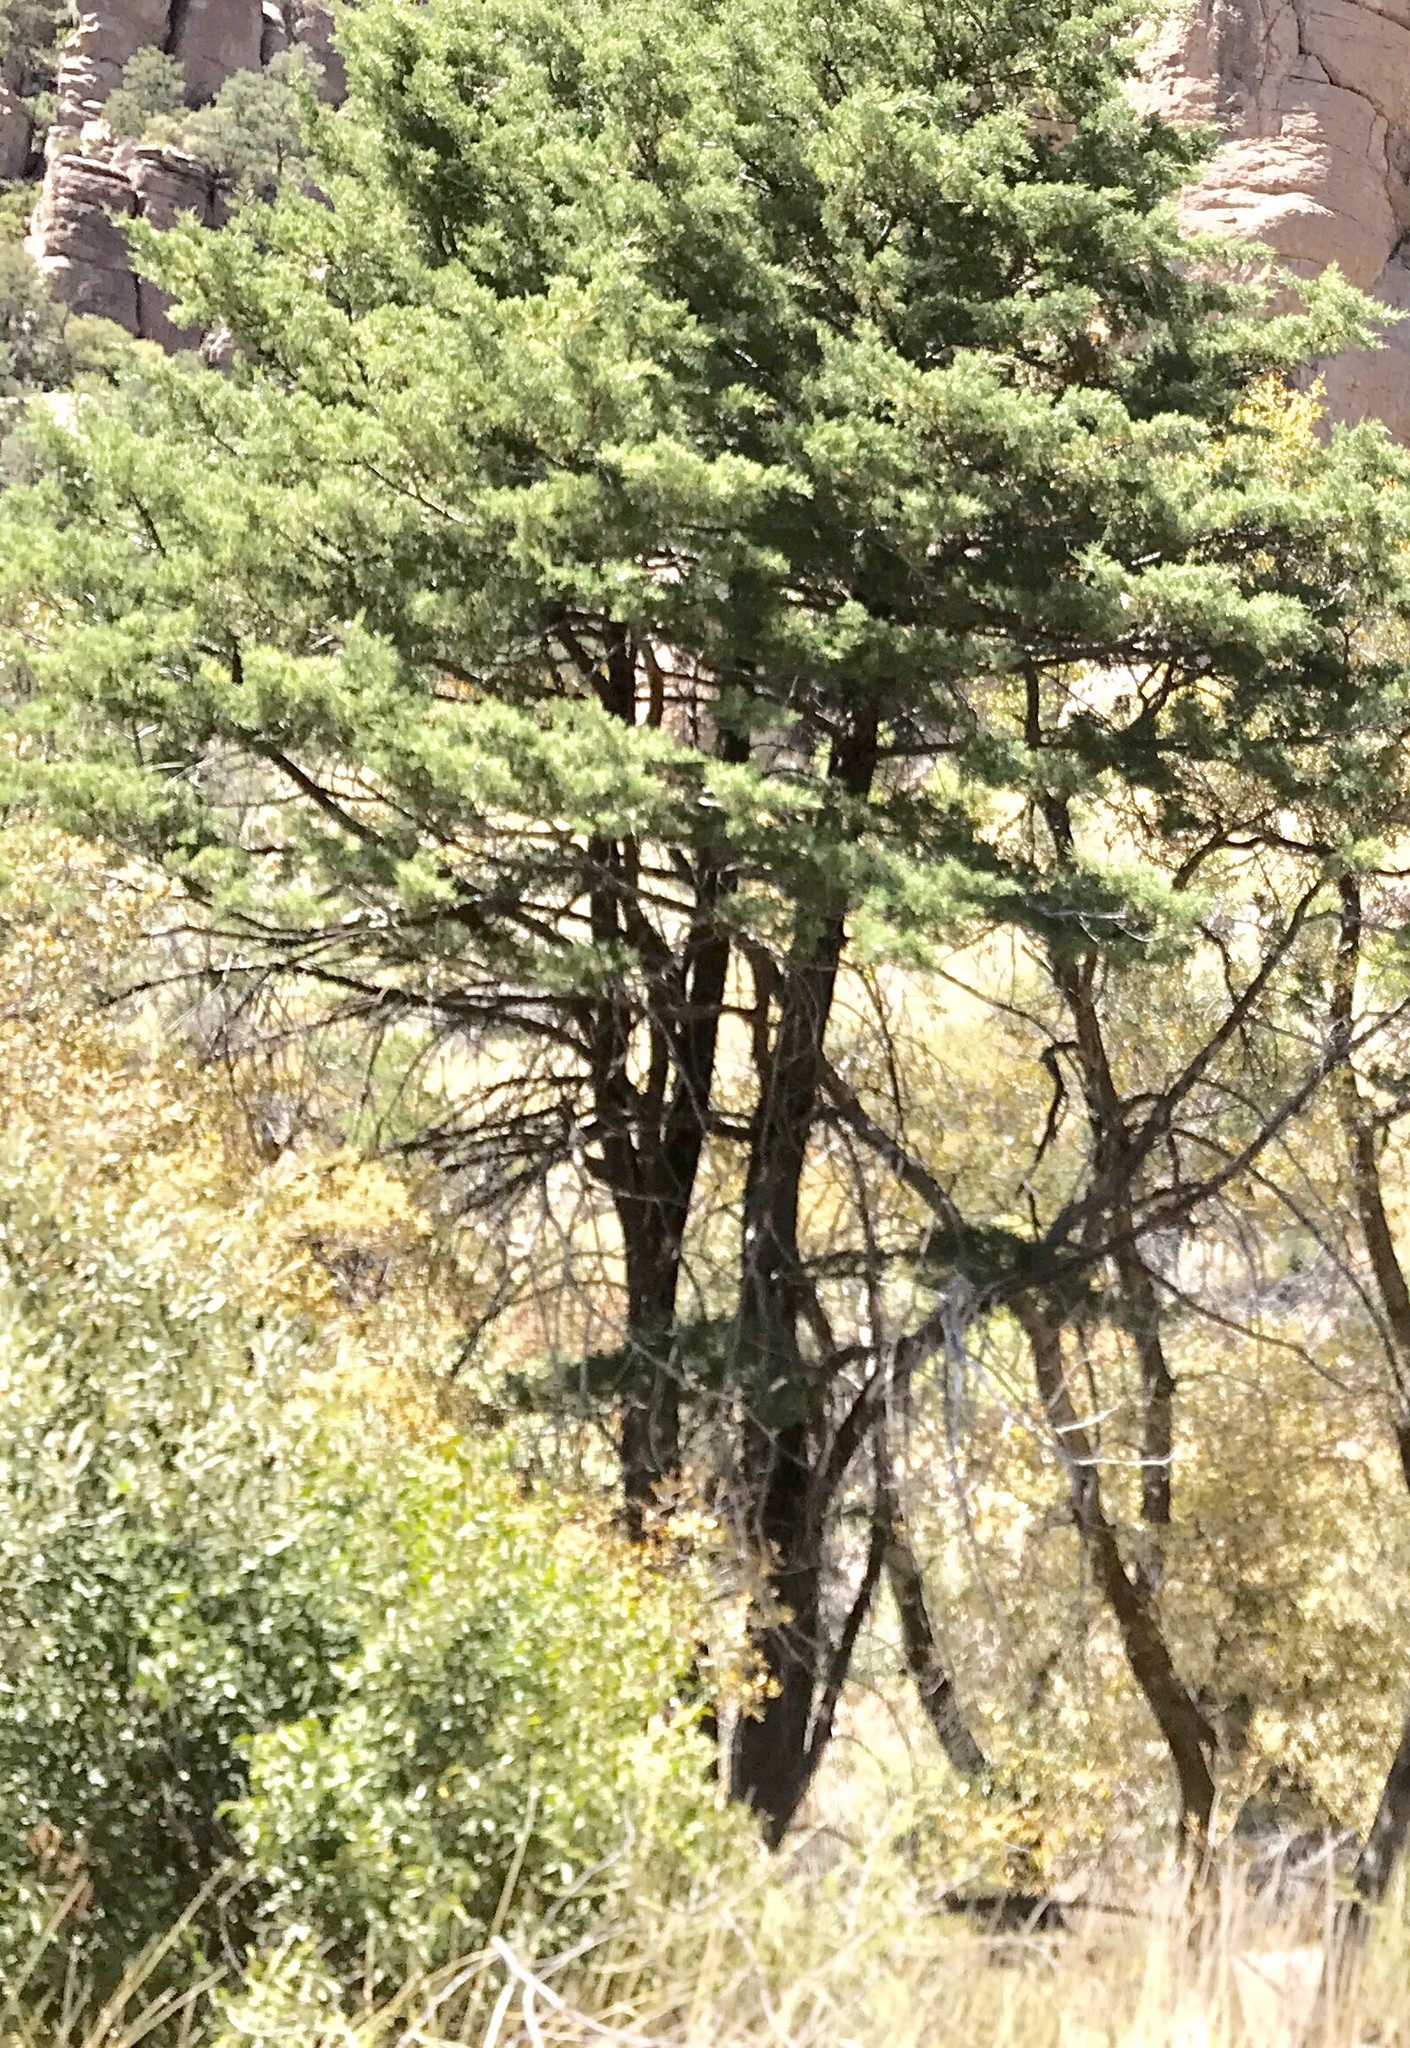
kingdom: Plantae
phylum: Tracheophyta
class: Pinopsida
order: Pinales
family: Cupressaceae
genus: Cupressus
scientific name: Cupressus arizonica
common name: Arizona cypress
